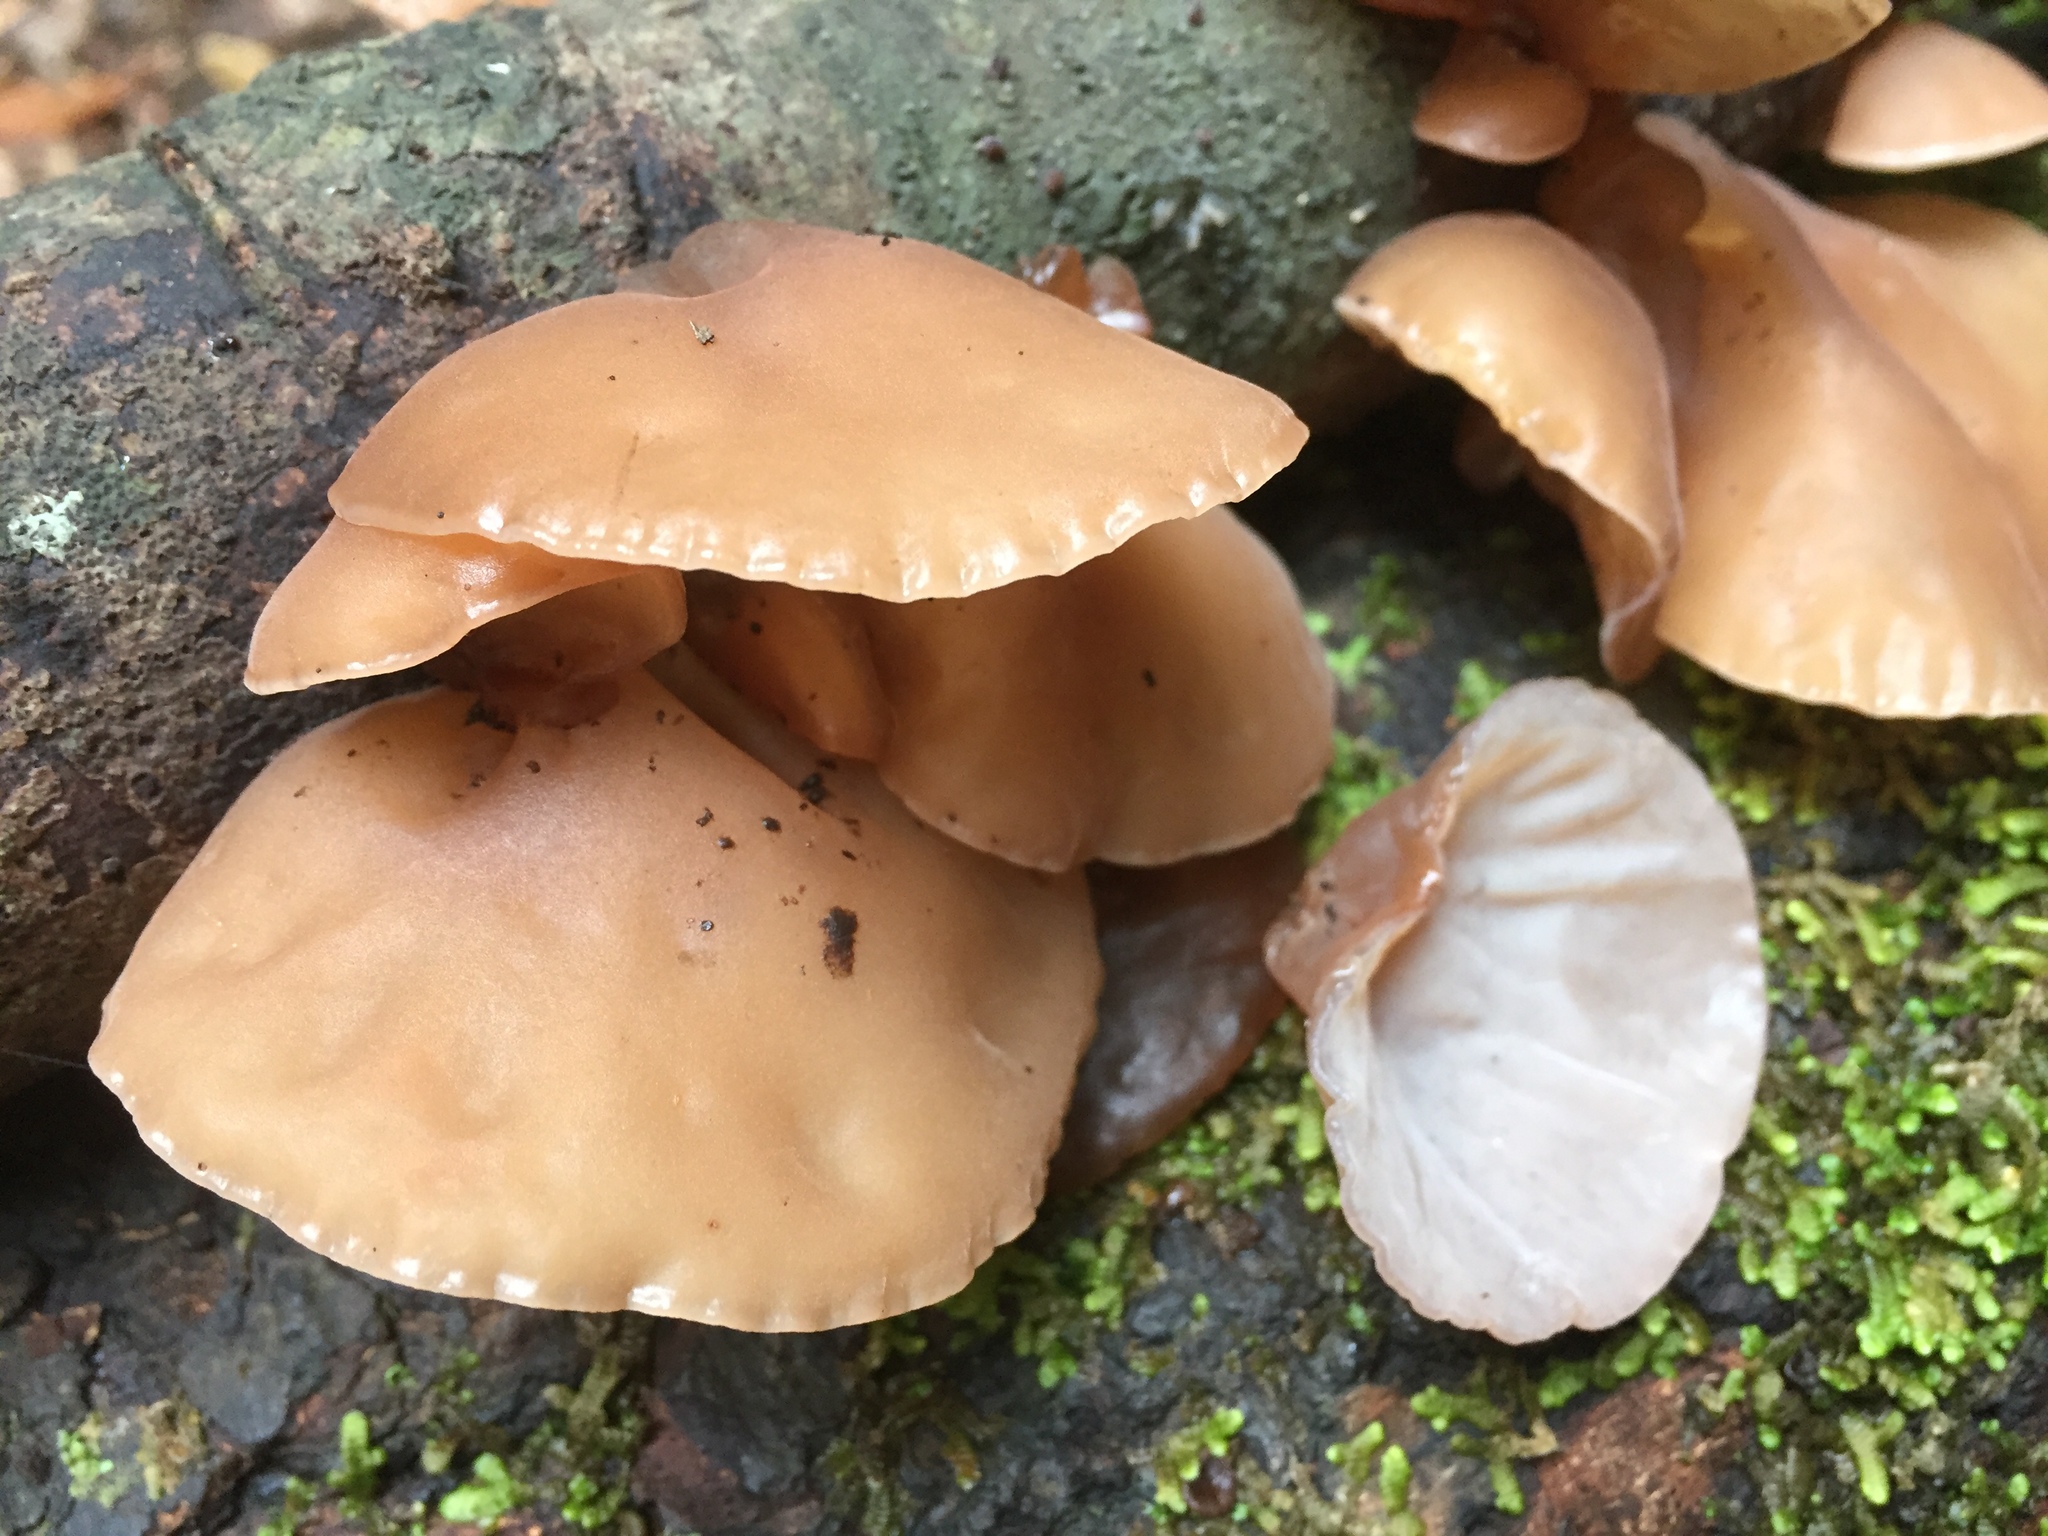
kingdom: Fungi
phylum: Basidiomycota
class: Agaricomycetes
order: Auriculariales
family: Auriculariaceae
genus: Auricularia
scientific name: Auricularia auricula-judae
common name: Jelly ear
